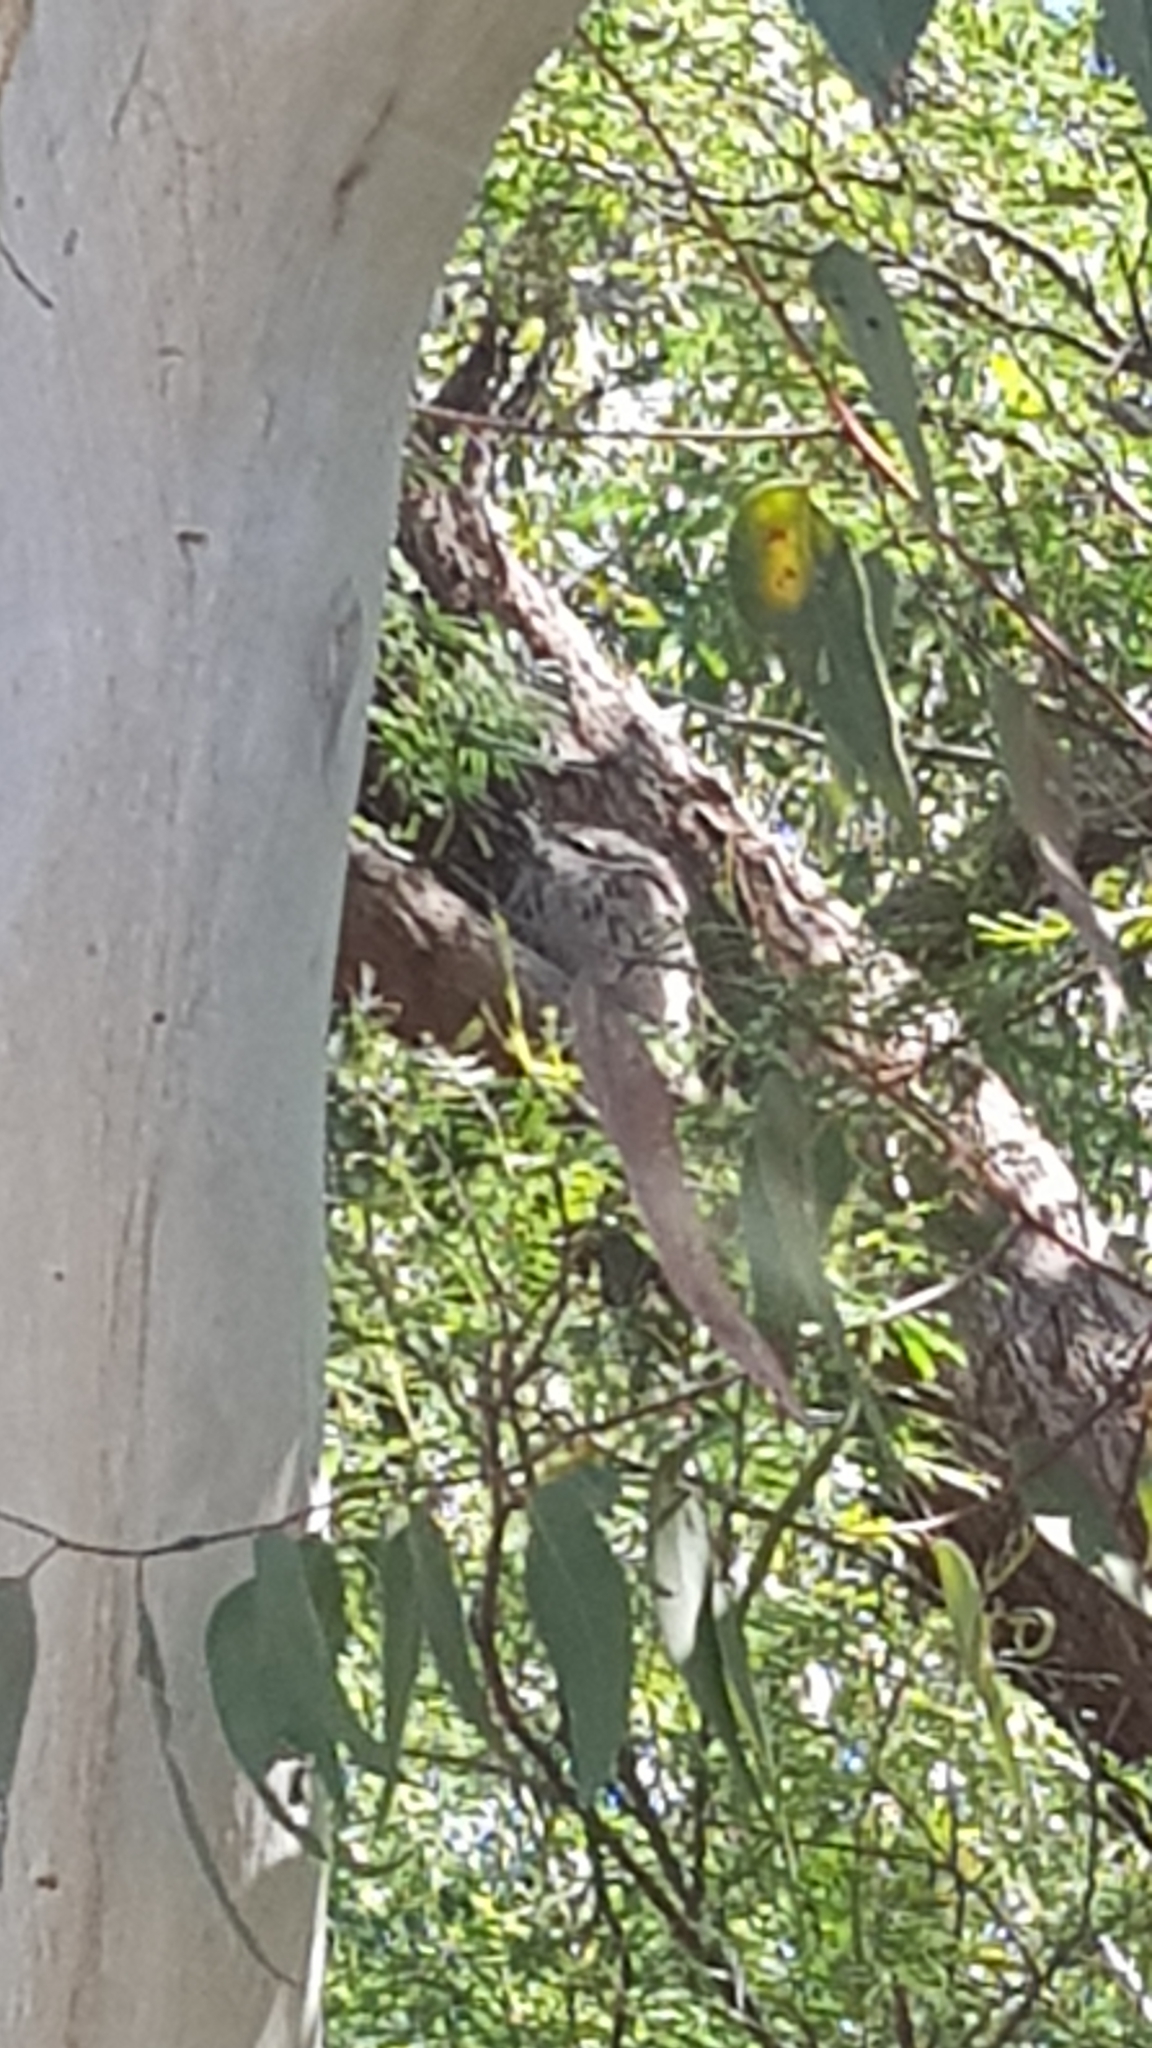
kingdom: Animalia
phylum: Chordata
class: Aves
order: Caprimulgiformes
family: Podargidae
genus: Podargus
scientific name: Podargus strigoides
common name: Tawny frogmouth
